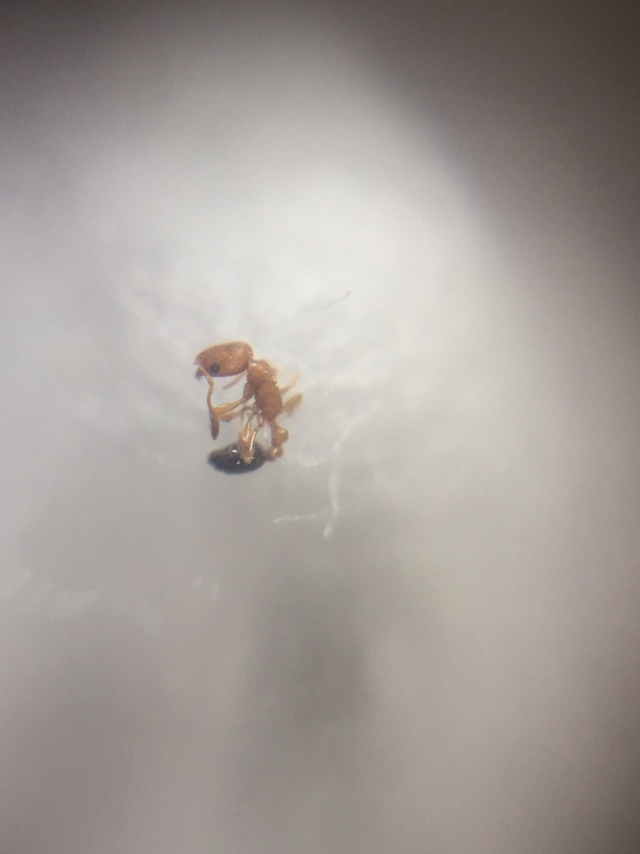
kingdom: Animalia
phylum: Arthropoda
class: Insecta
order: Hymenoptera
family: Formicidae
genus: Cardiocondyla
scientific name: Cardiocondyla minutior
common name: Ant
